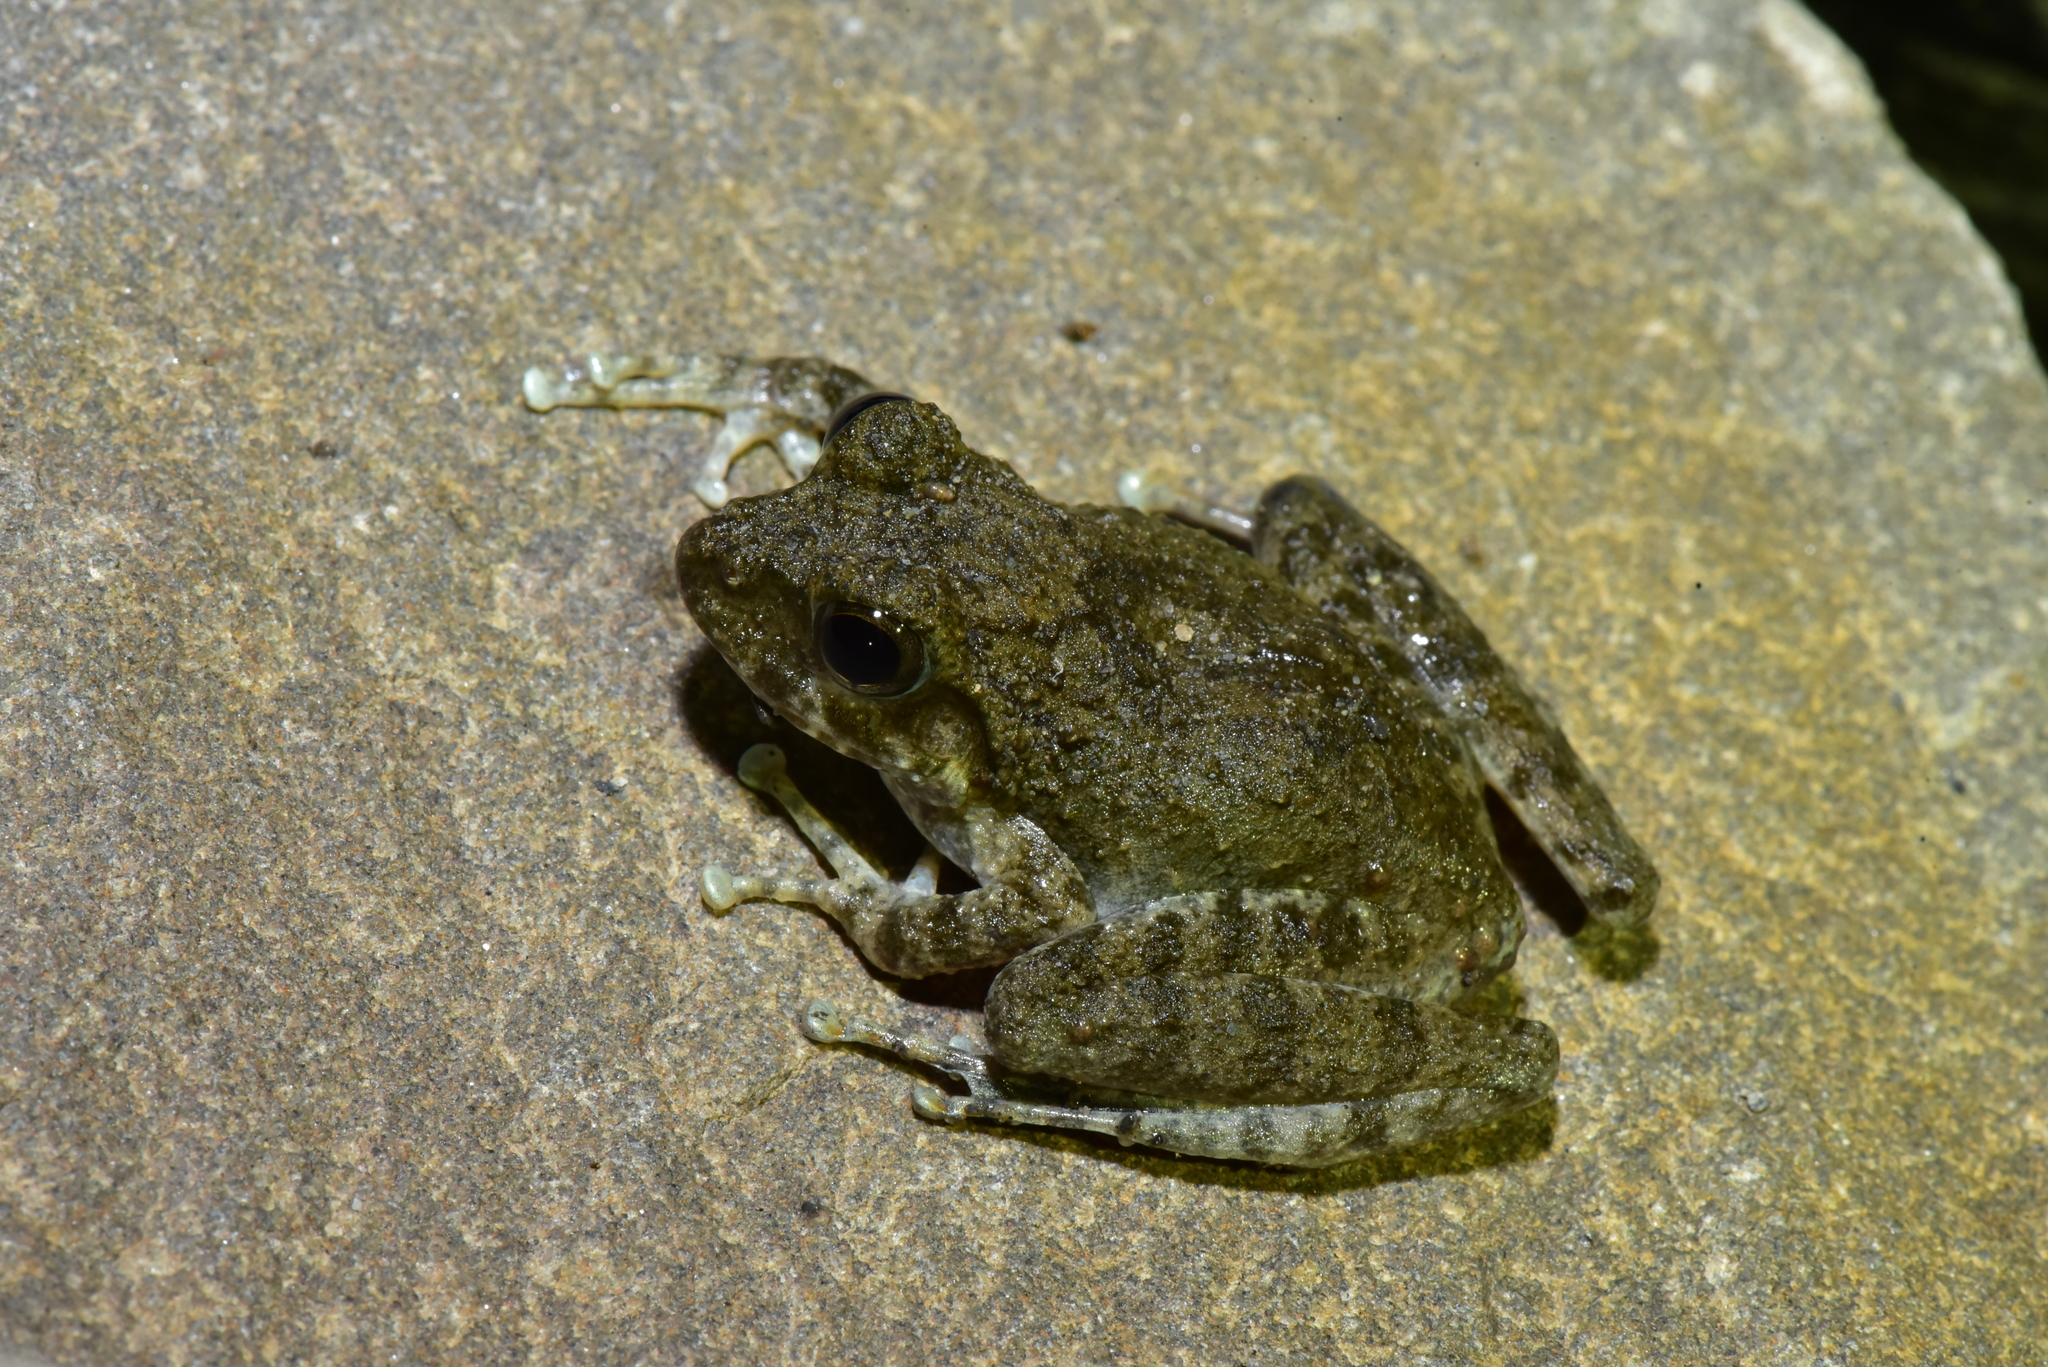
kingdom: Animalia
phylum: Chordata
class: Amphibia
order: Anura
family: Rhacophoridae
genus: Buergeria
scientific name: Buergeria otai
